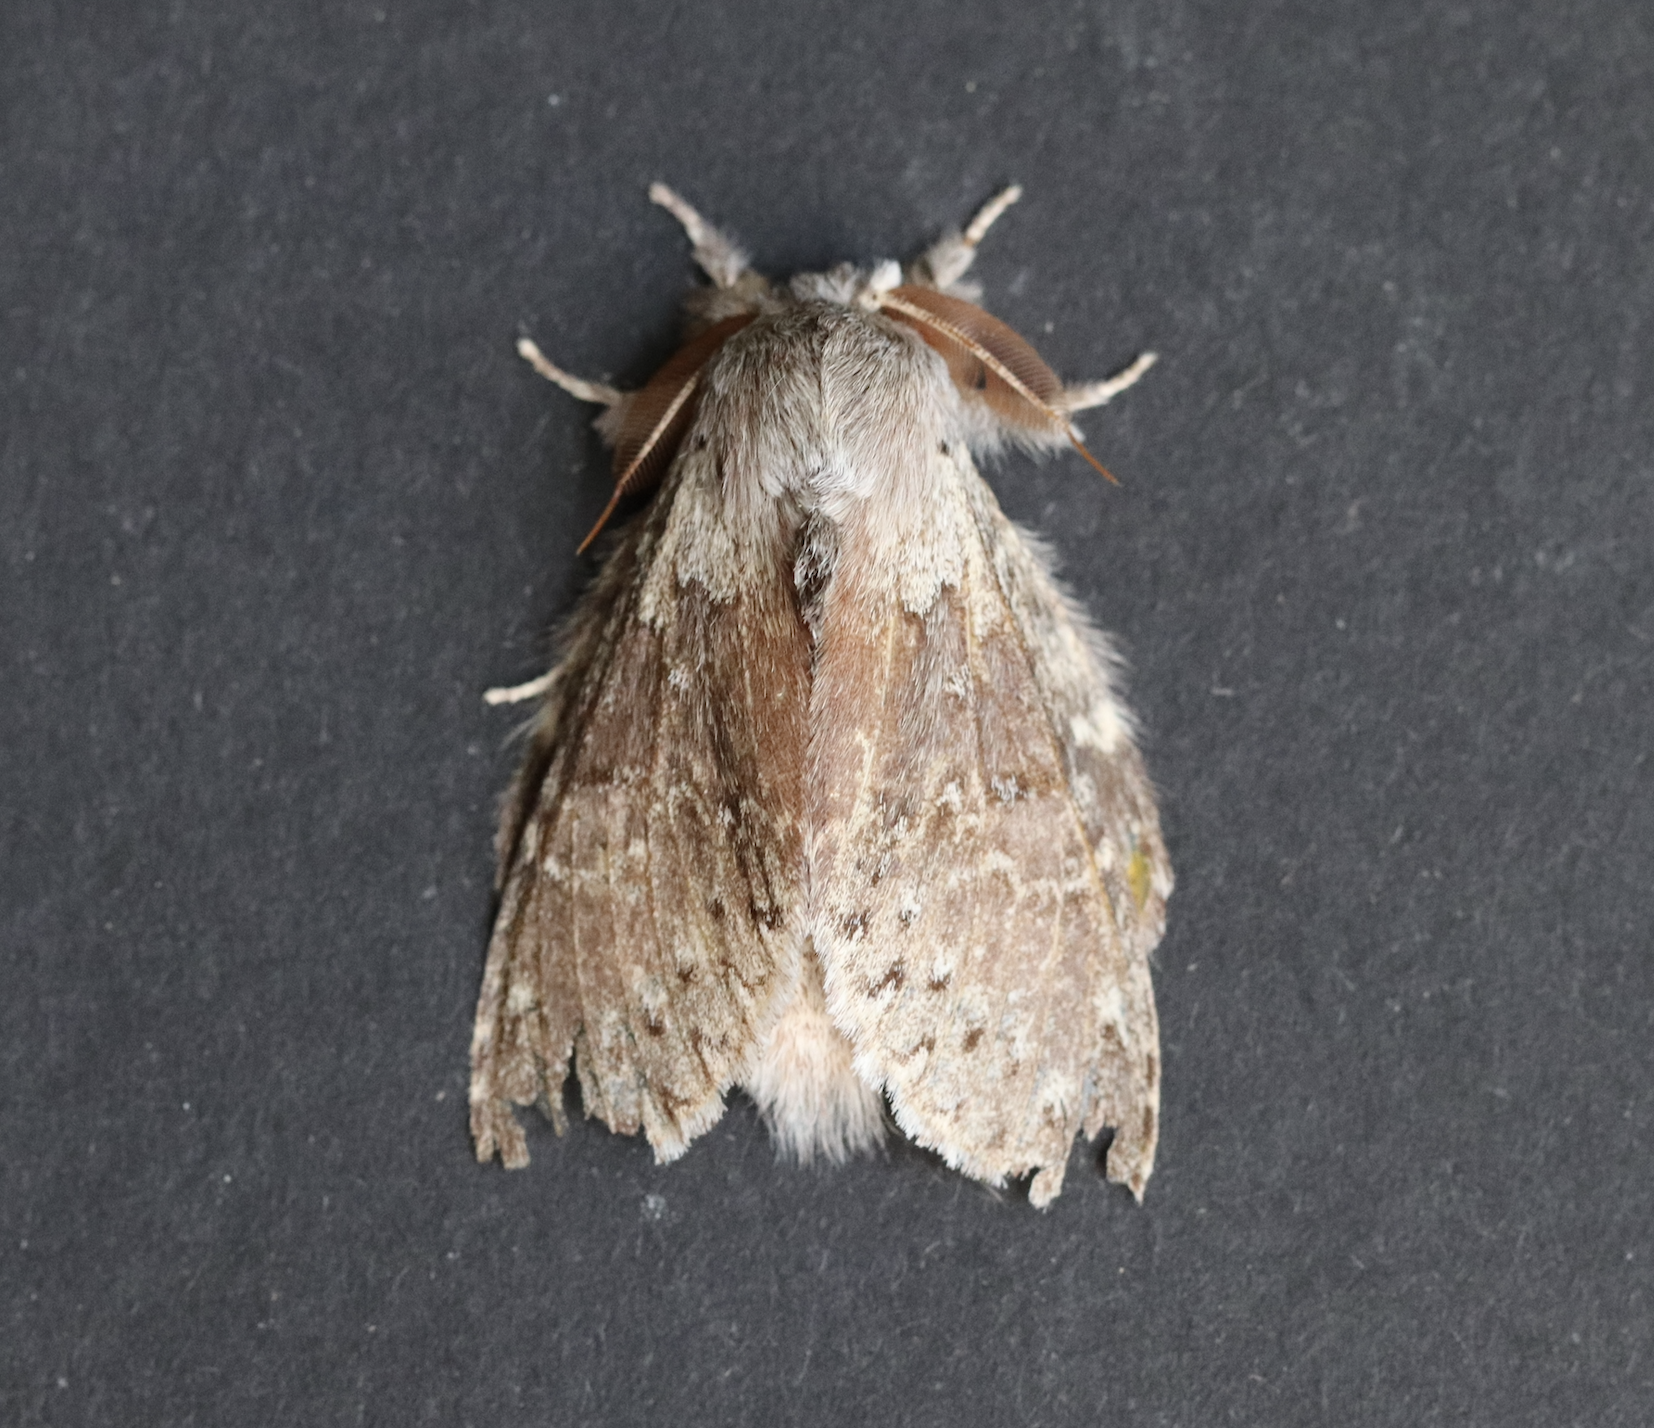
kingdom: Animalia
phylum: Arthropoda
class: Insecta
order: Lepidoptera
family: Notodontidae
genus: Stauropus
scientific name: Stauropus fagi
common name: Lobster moth
